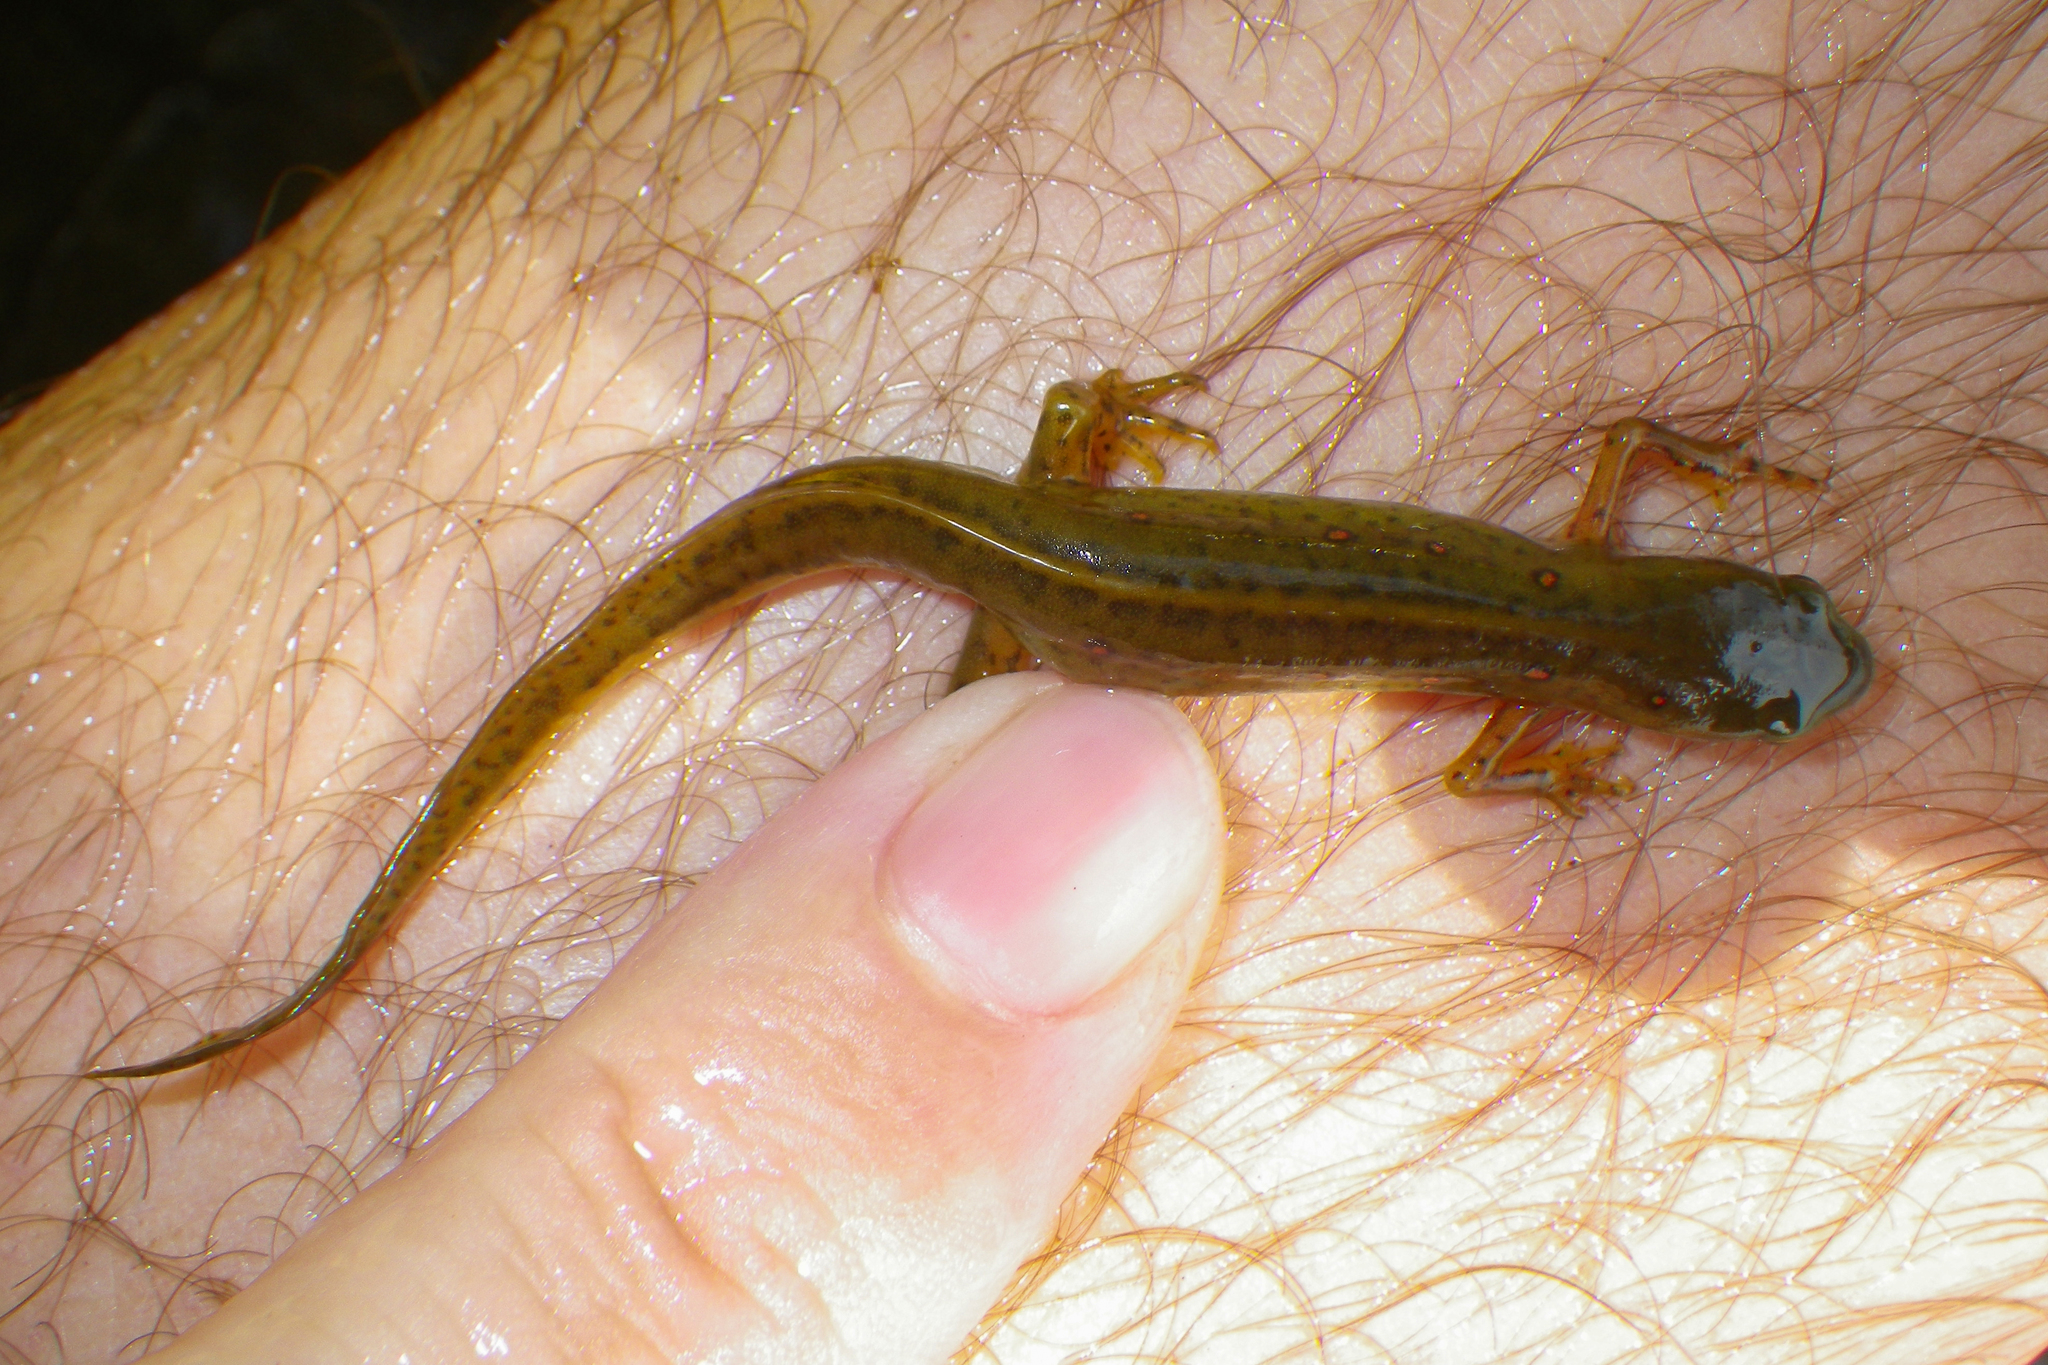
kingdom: Animalia
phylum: Chordata
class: Amphibia
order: Caudata
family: Salamandridae
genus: Notophthalmus
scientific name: Notophthalmus viridescens
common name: Eastern newt
